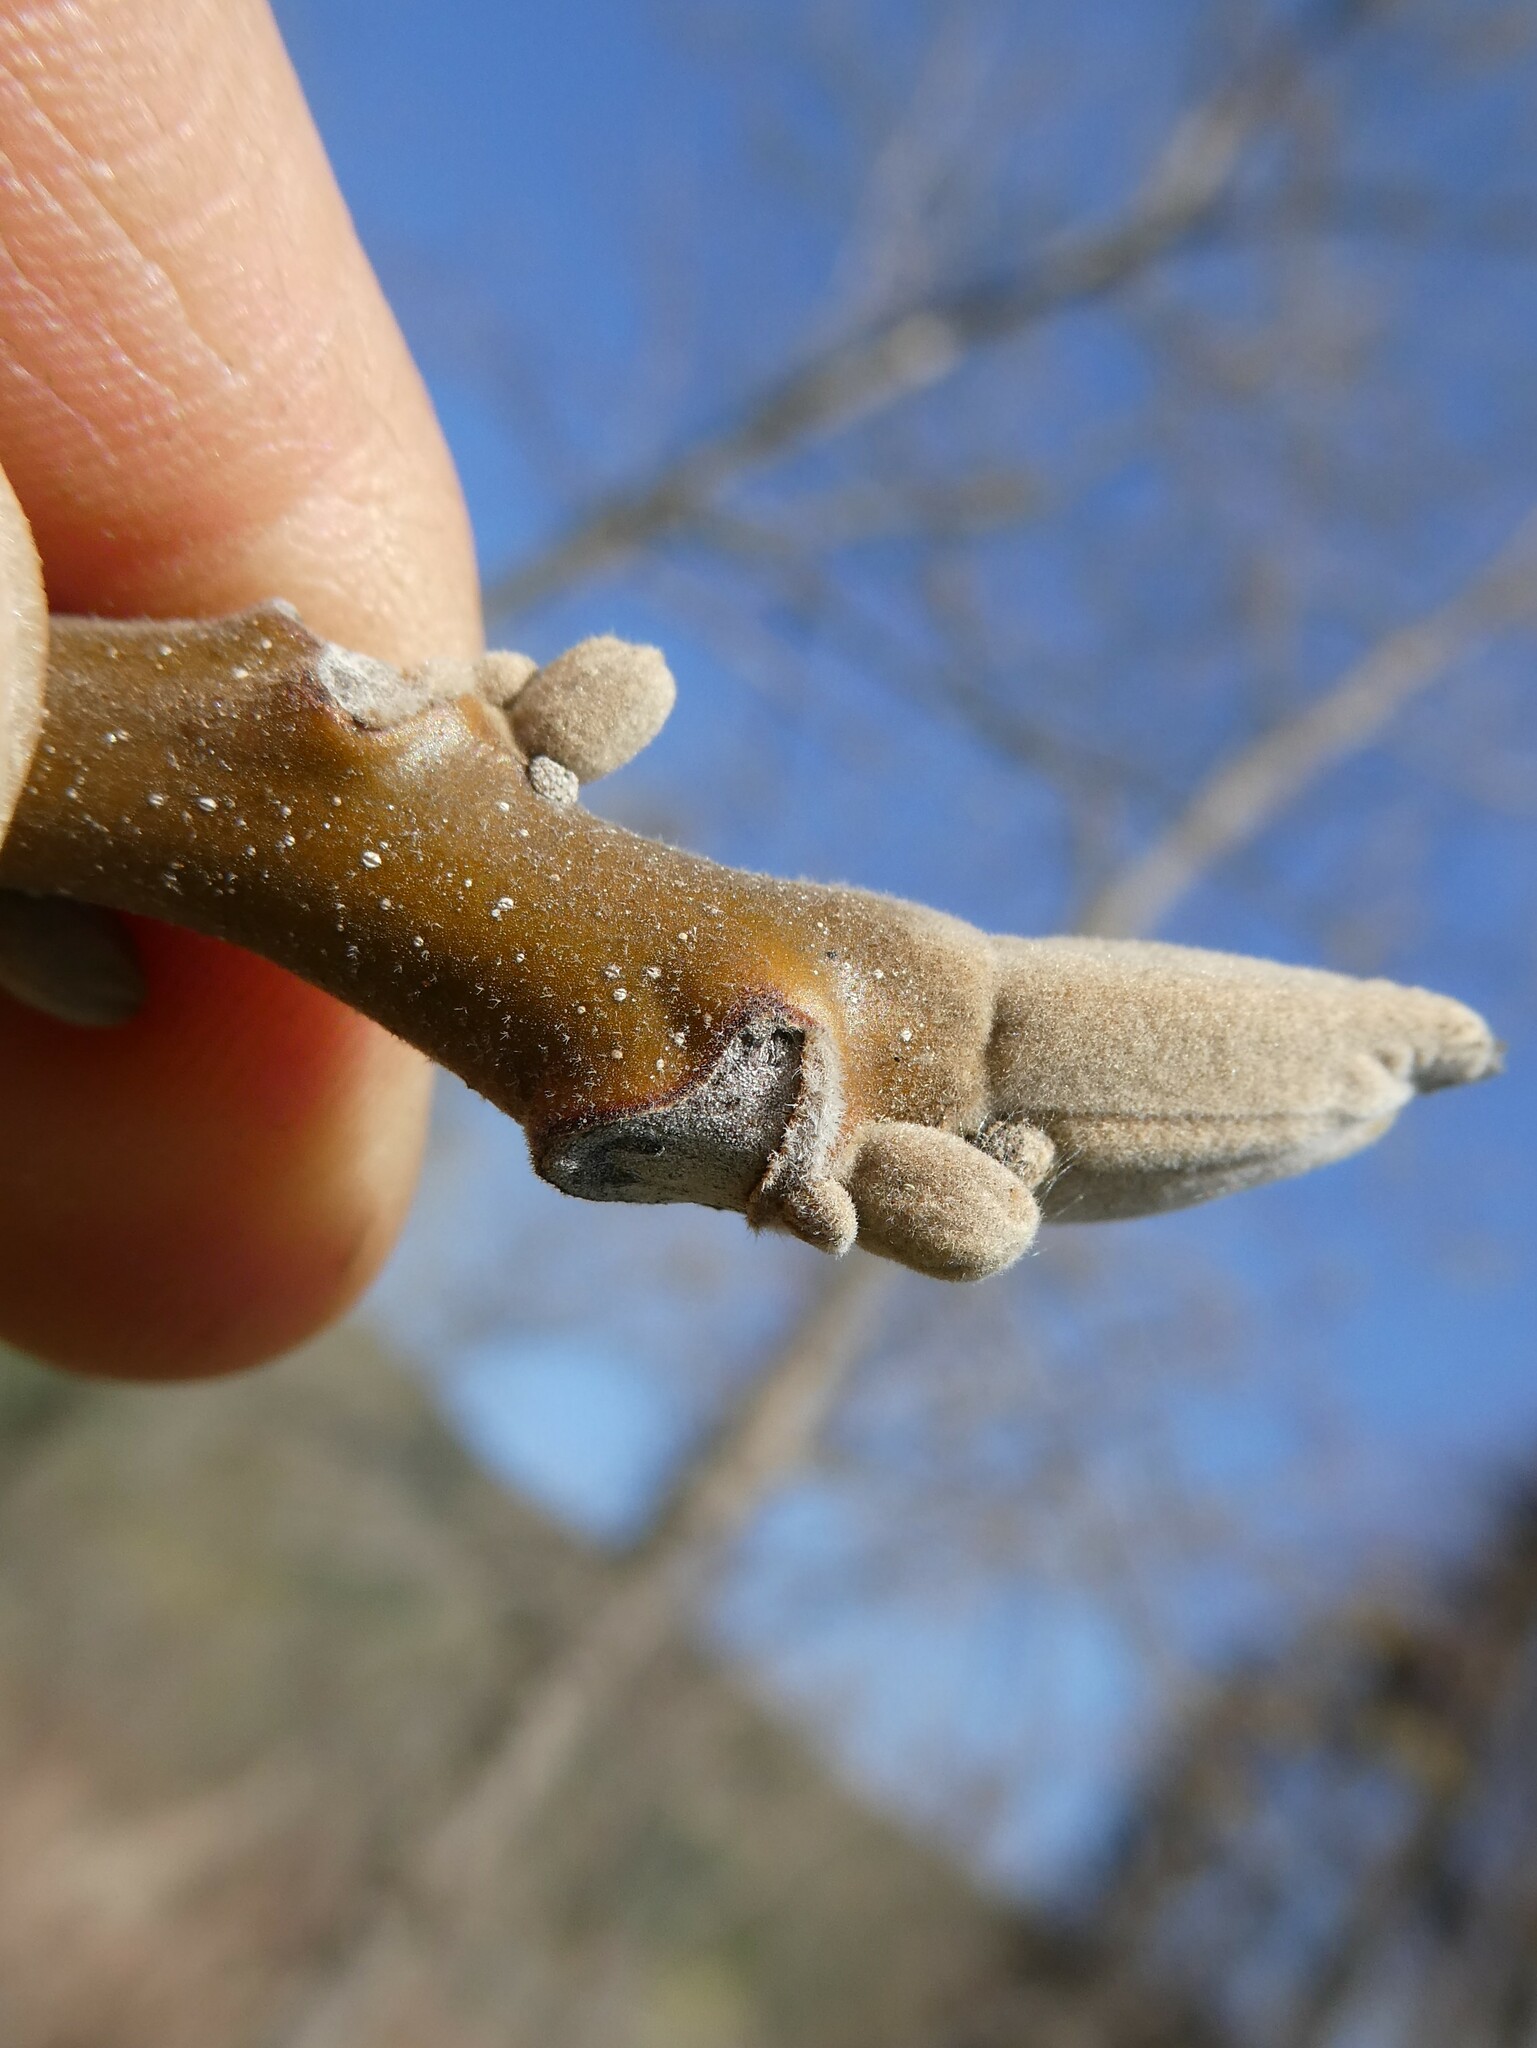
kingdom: Plantae
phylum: Tracheophyta
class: Magnoliopsida
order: Fagales
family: Juglandaceae
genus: Juglans
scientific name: Juglans cinerea
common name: Butternut
